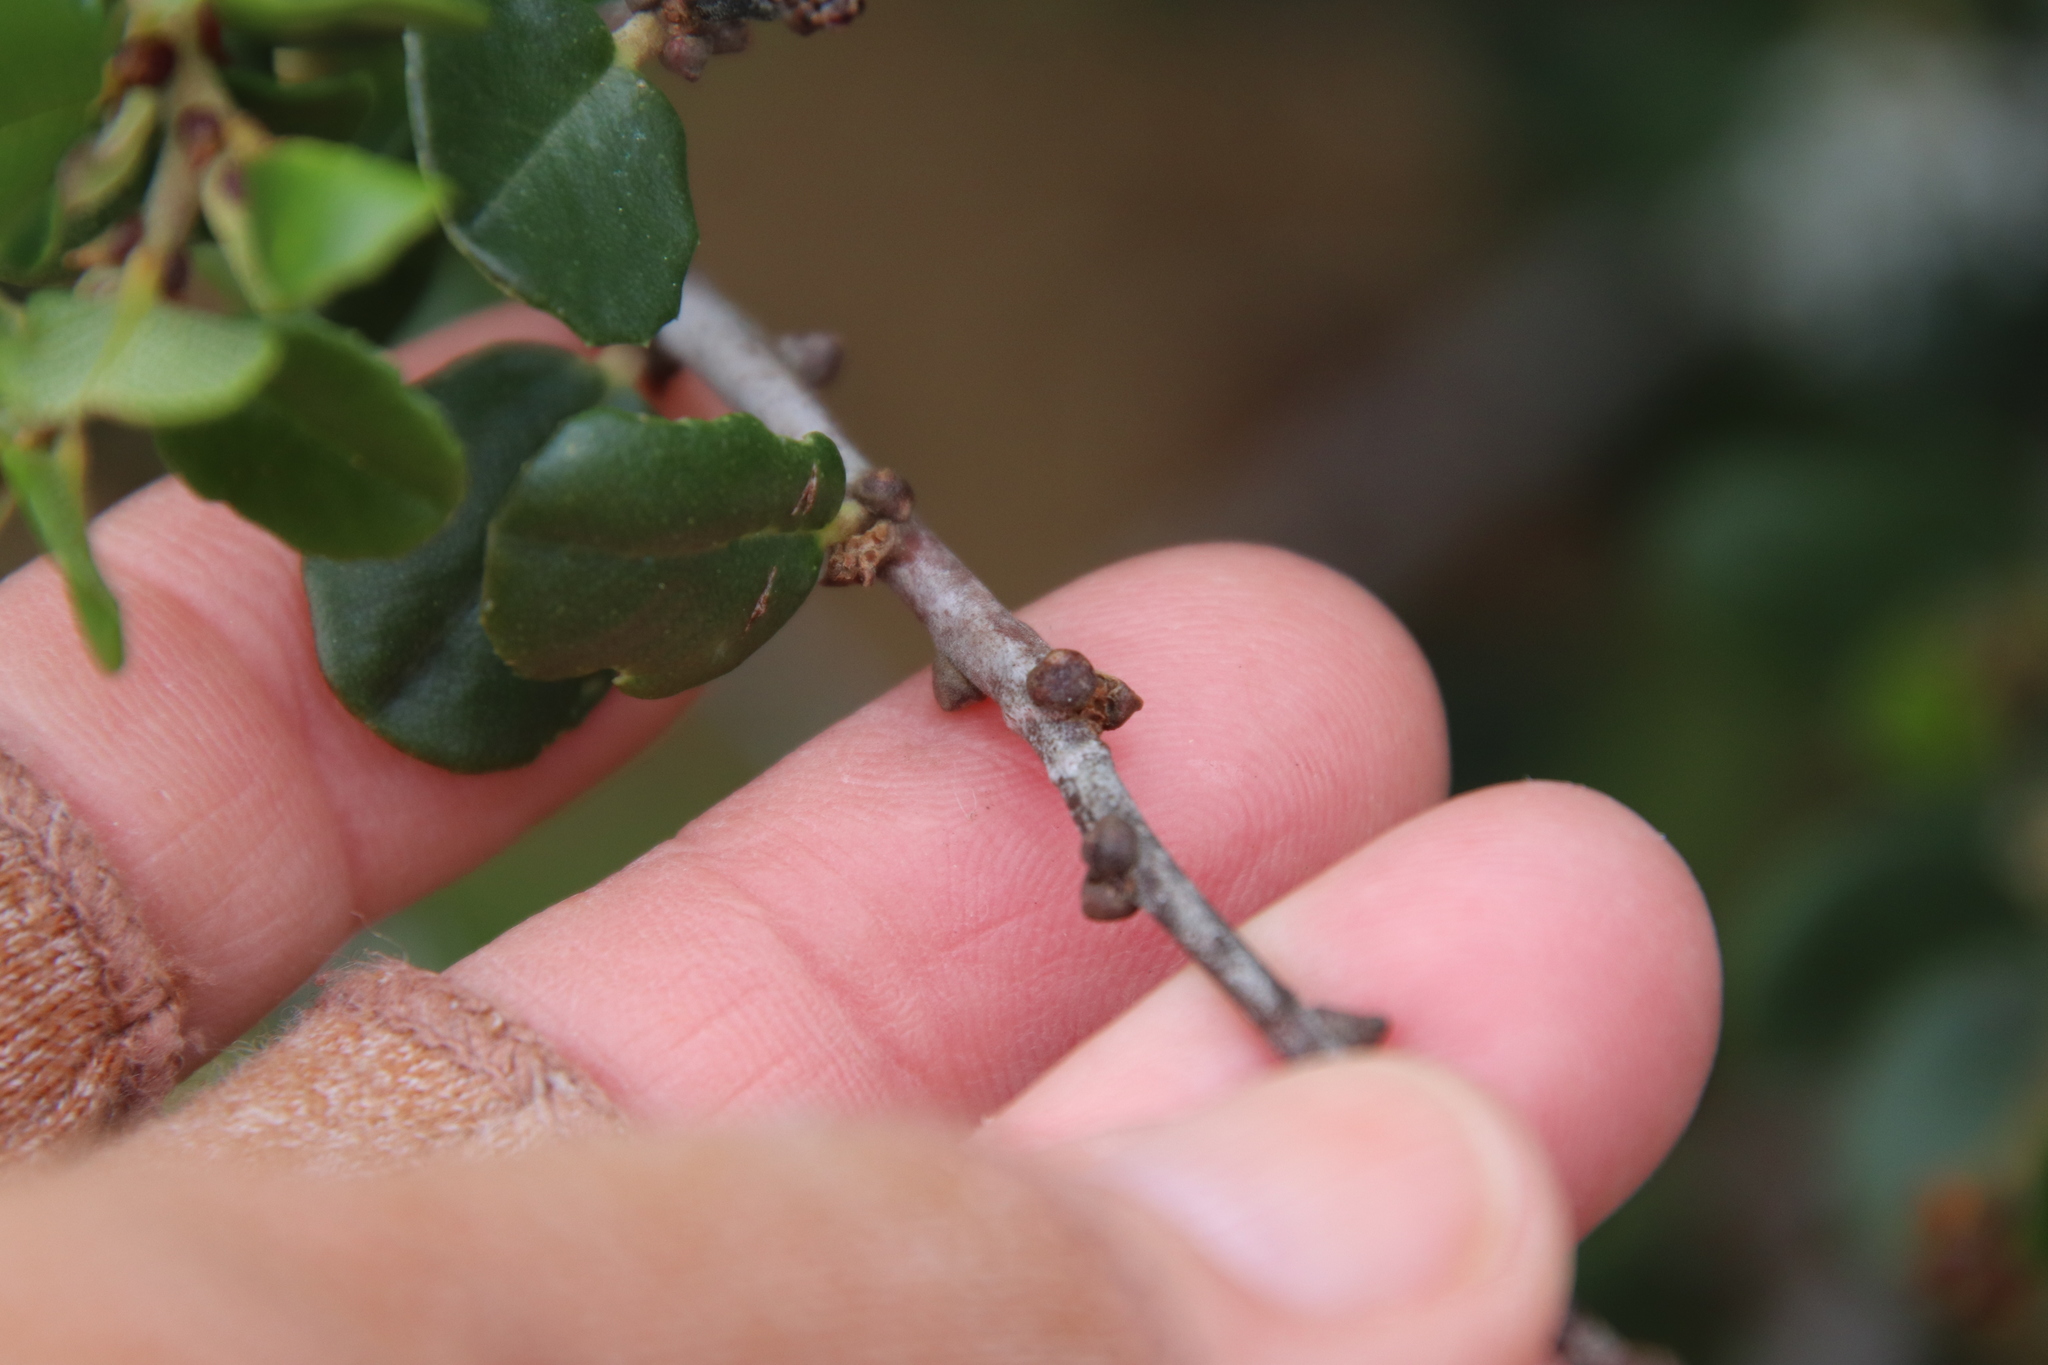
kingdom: Plantae
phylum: Tracheophyta
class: Magnoliopsida
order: Rosales
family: Rhamnaceae
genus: Ceanothus
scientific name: Ceanothus verrucosus
